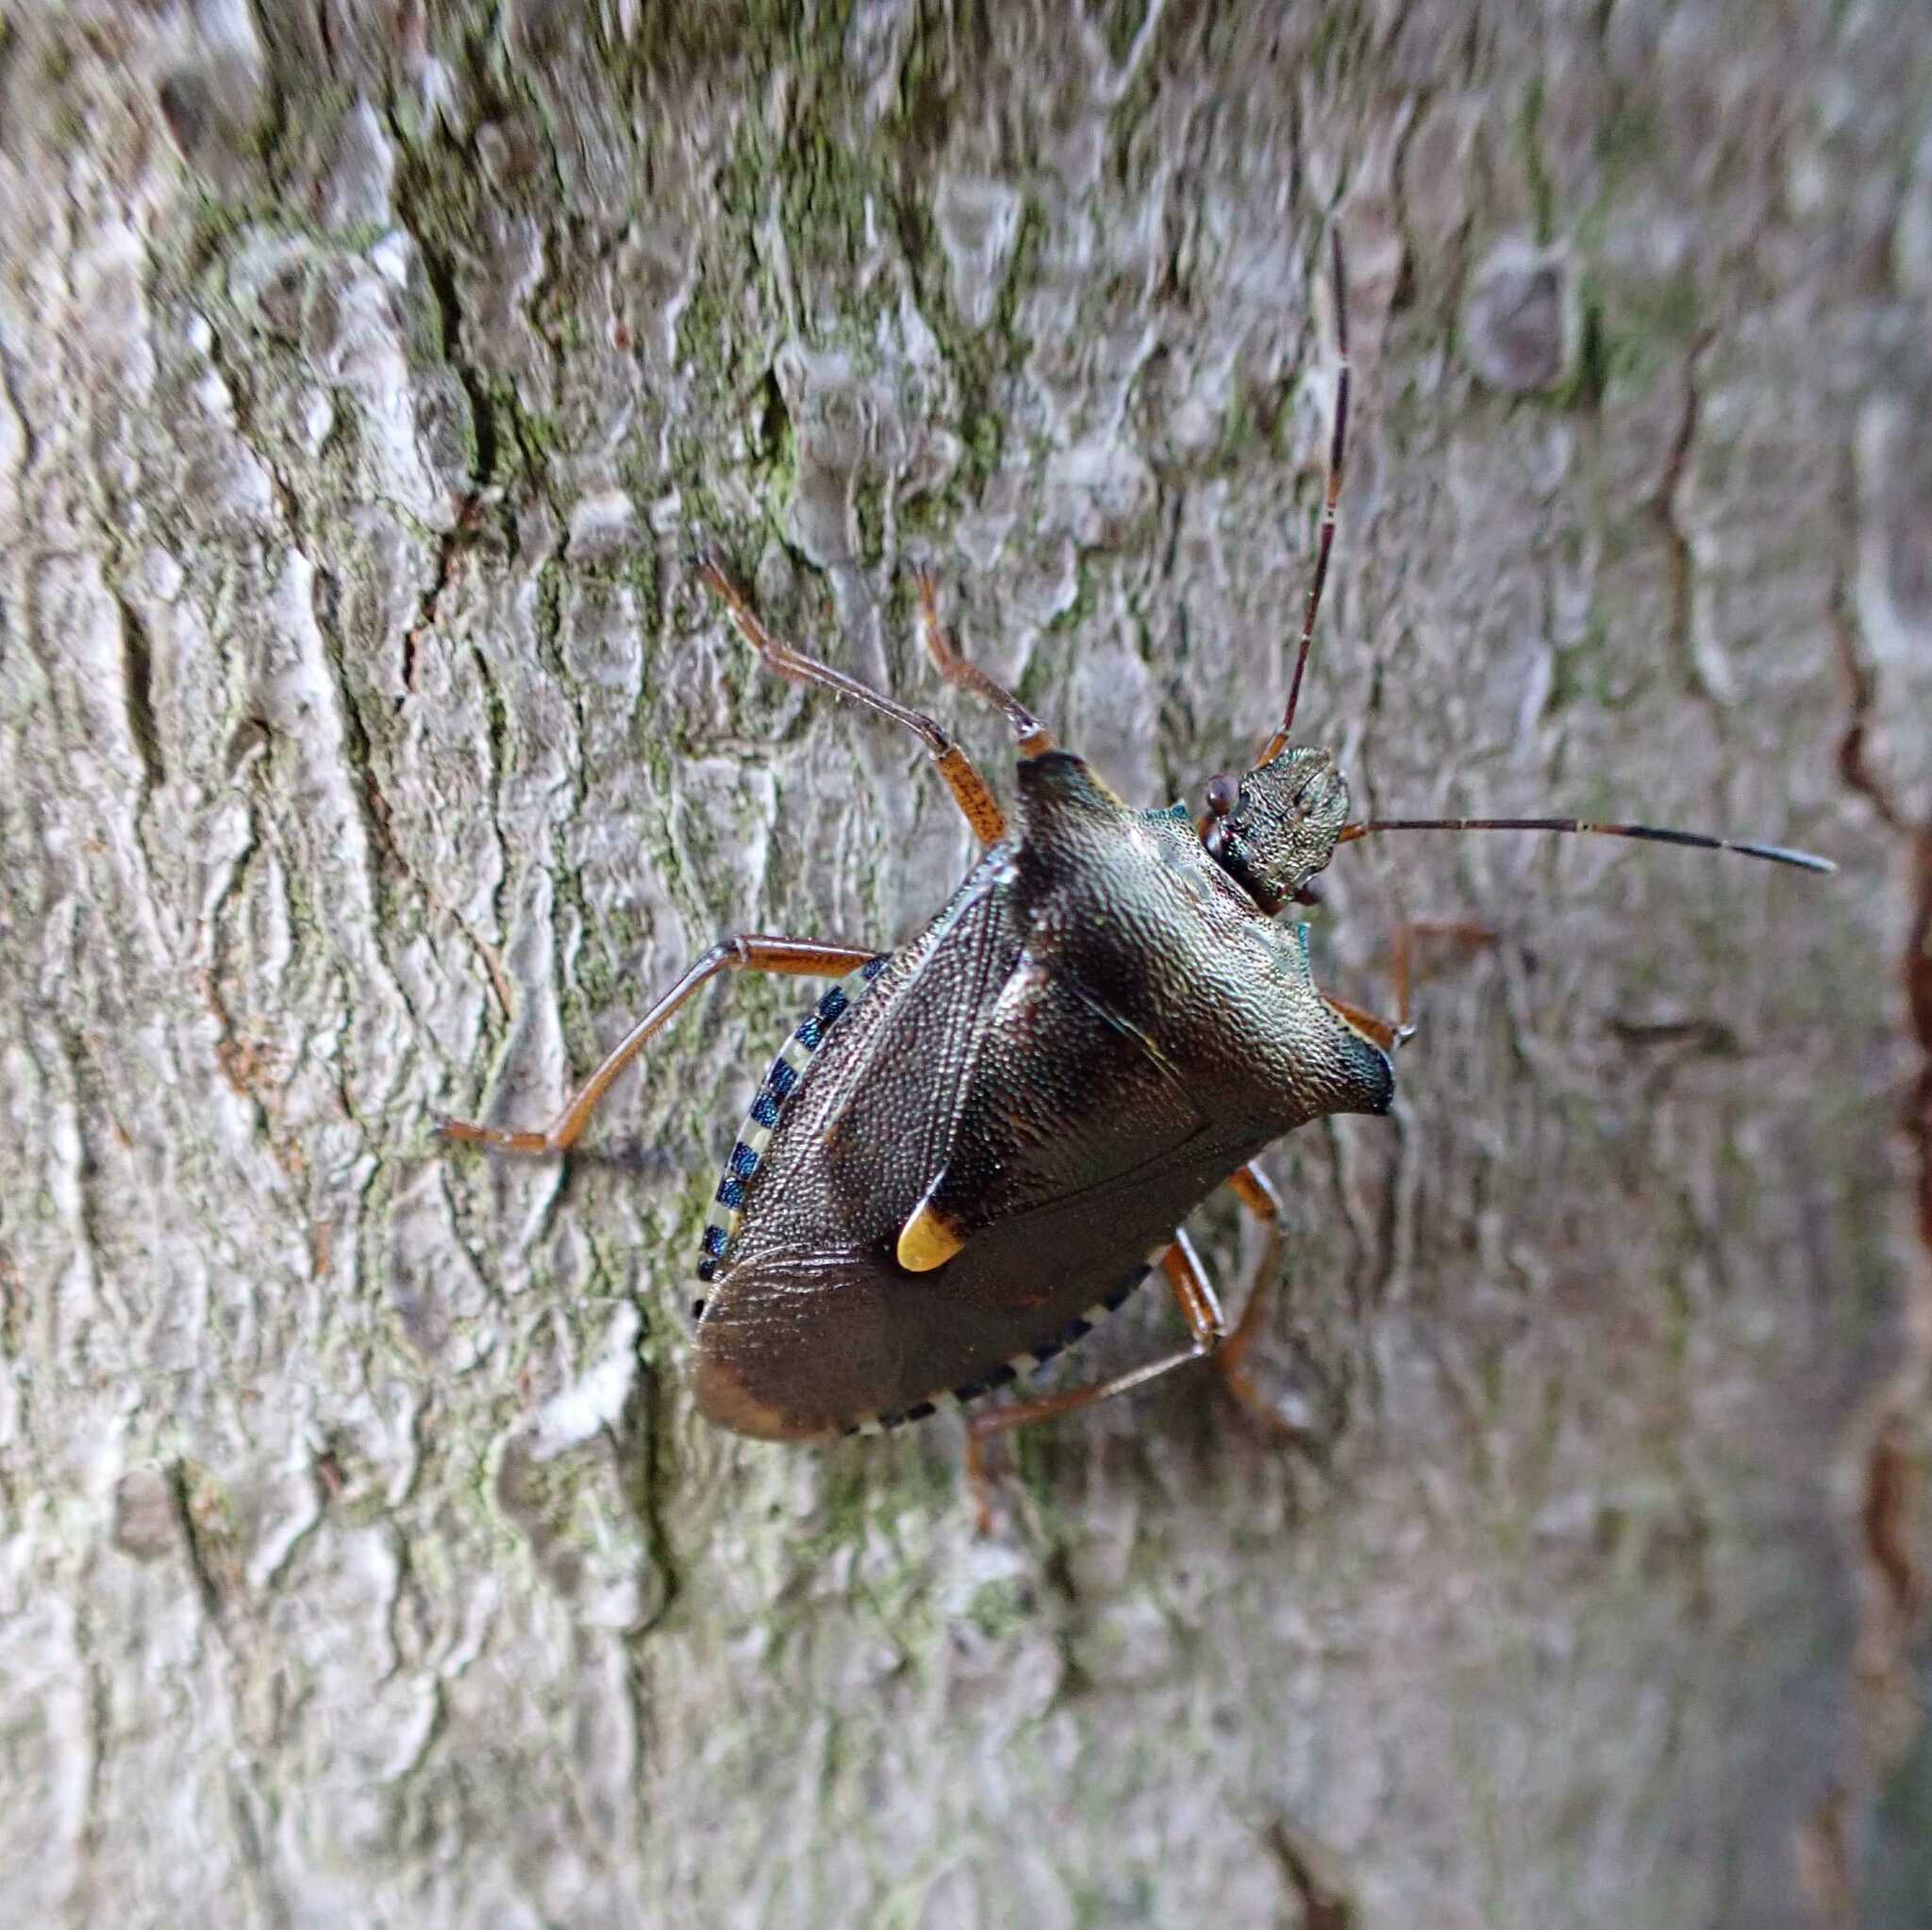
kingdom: Animalia
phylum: Arthropoda
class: Insecta
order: Hemiptera
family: Pentatomidae
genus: Pentatoma
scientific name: Pentatoma rufipes
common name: Forest bug
